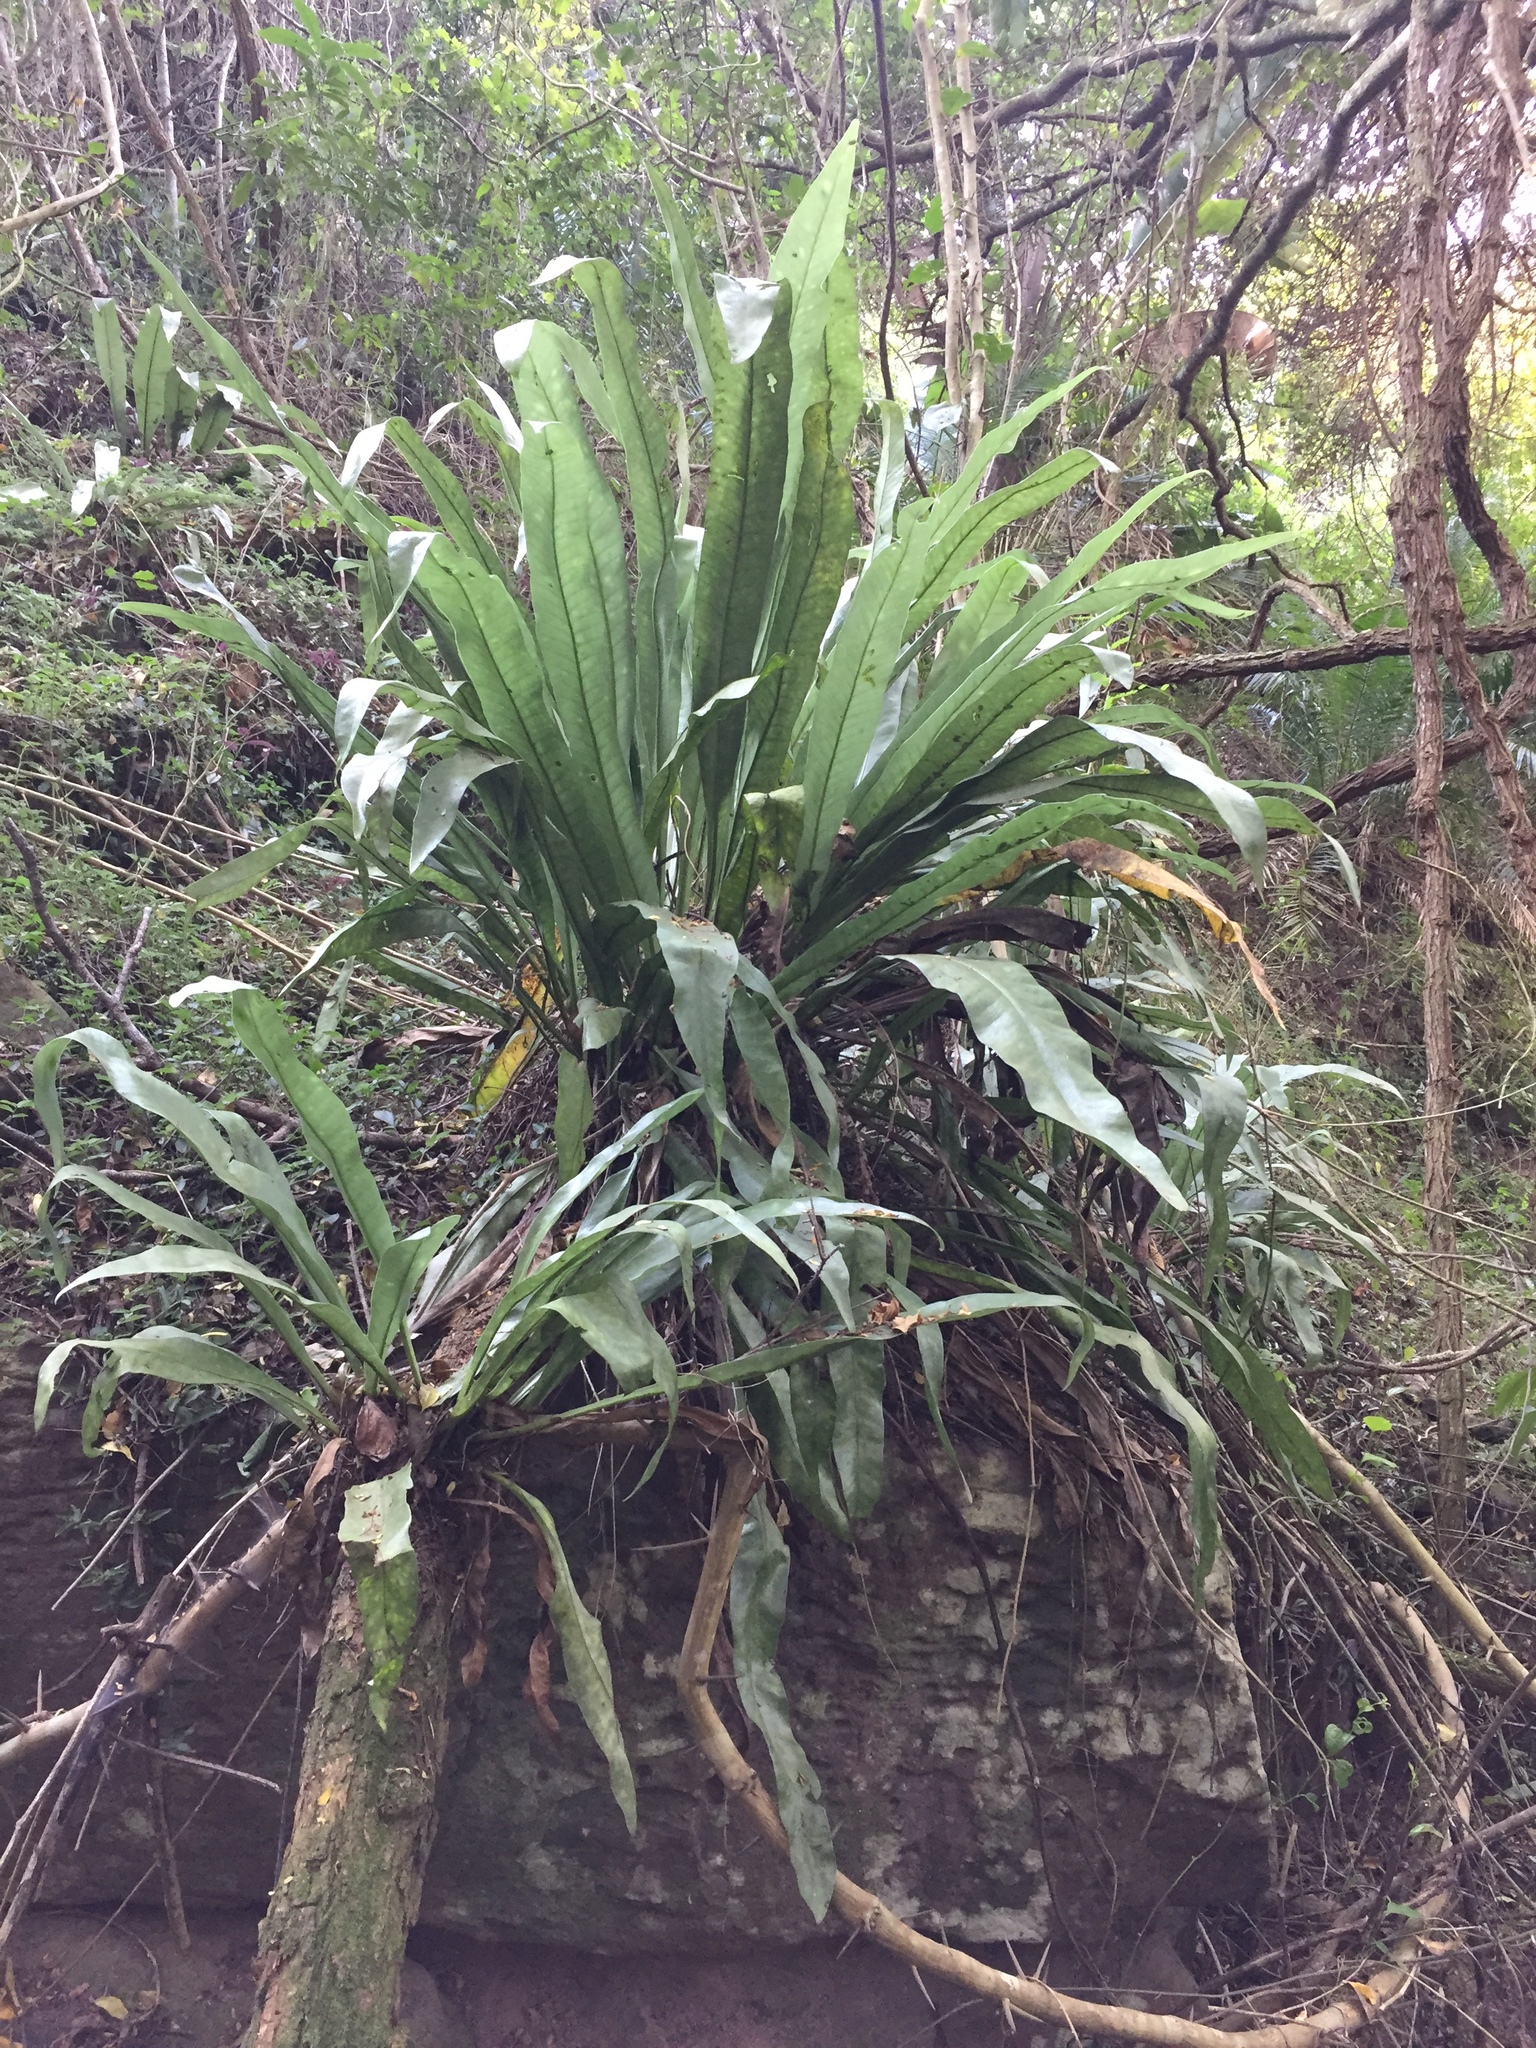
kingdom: Plantae
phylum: Tracheophyta
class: Polypodiopsida
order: Polypodiales
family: Aspleniaceae
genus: Asplenium
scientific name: Asplenium nidus
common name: Bird's-nest fern
